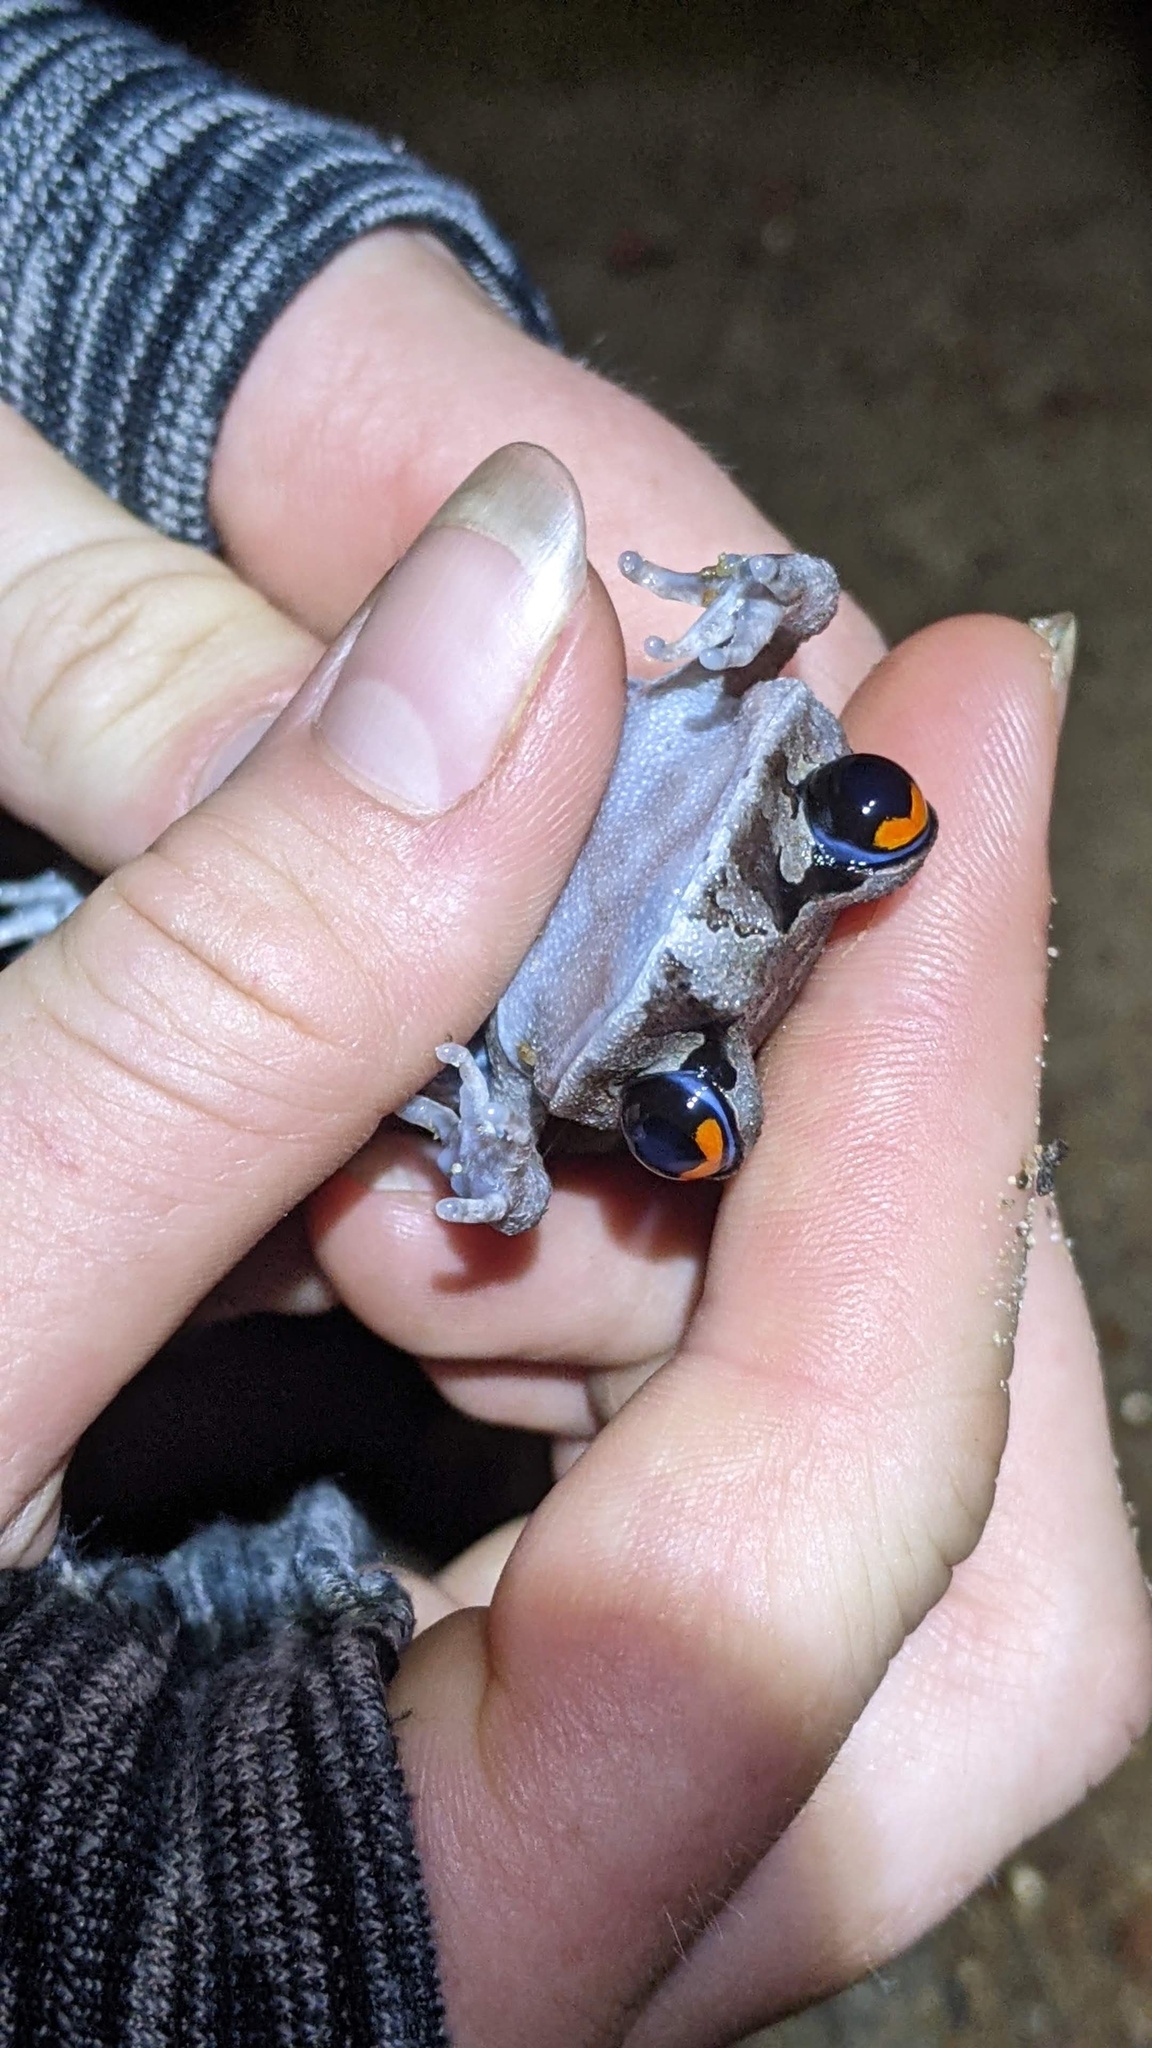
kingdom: Animalia
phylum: Chordata
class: Amphibia
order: Anura
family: Megophryidae
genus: Leptobrachium
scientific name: Leptobrachium smithi
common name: Smith's litter frog
